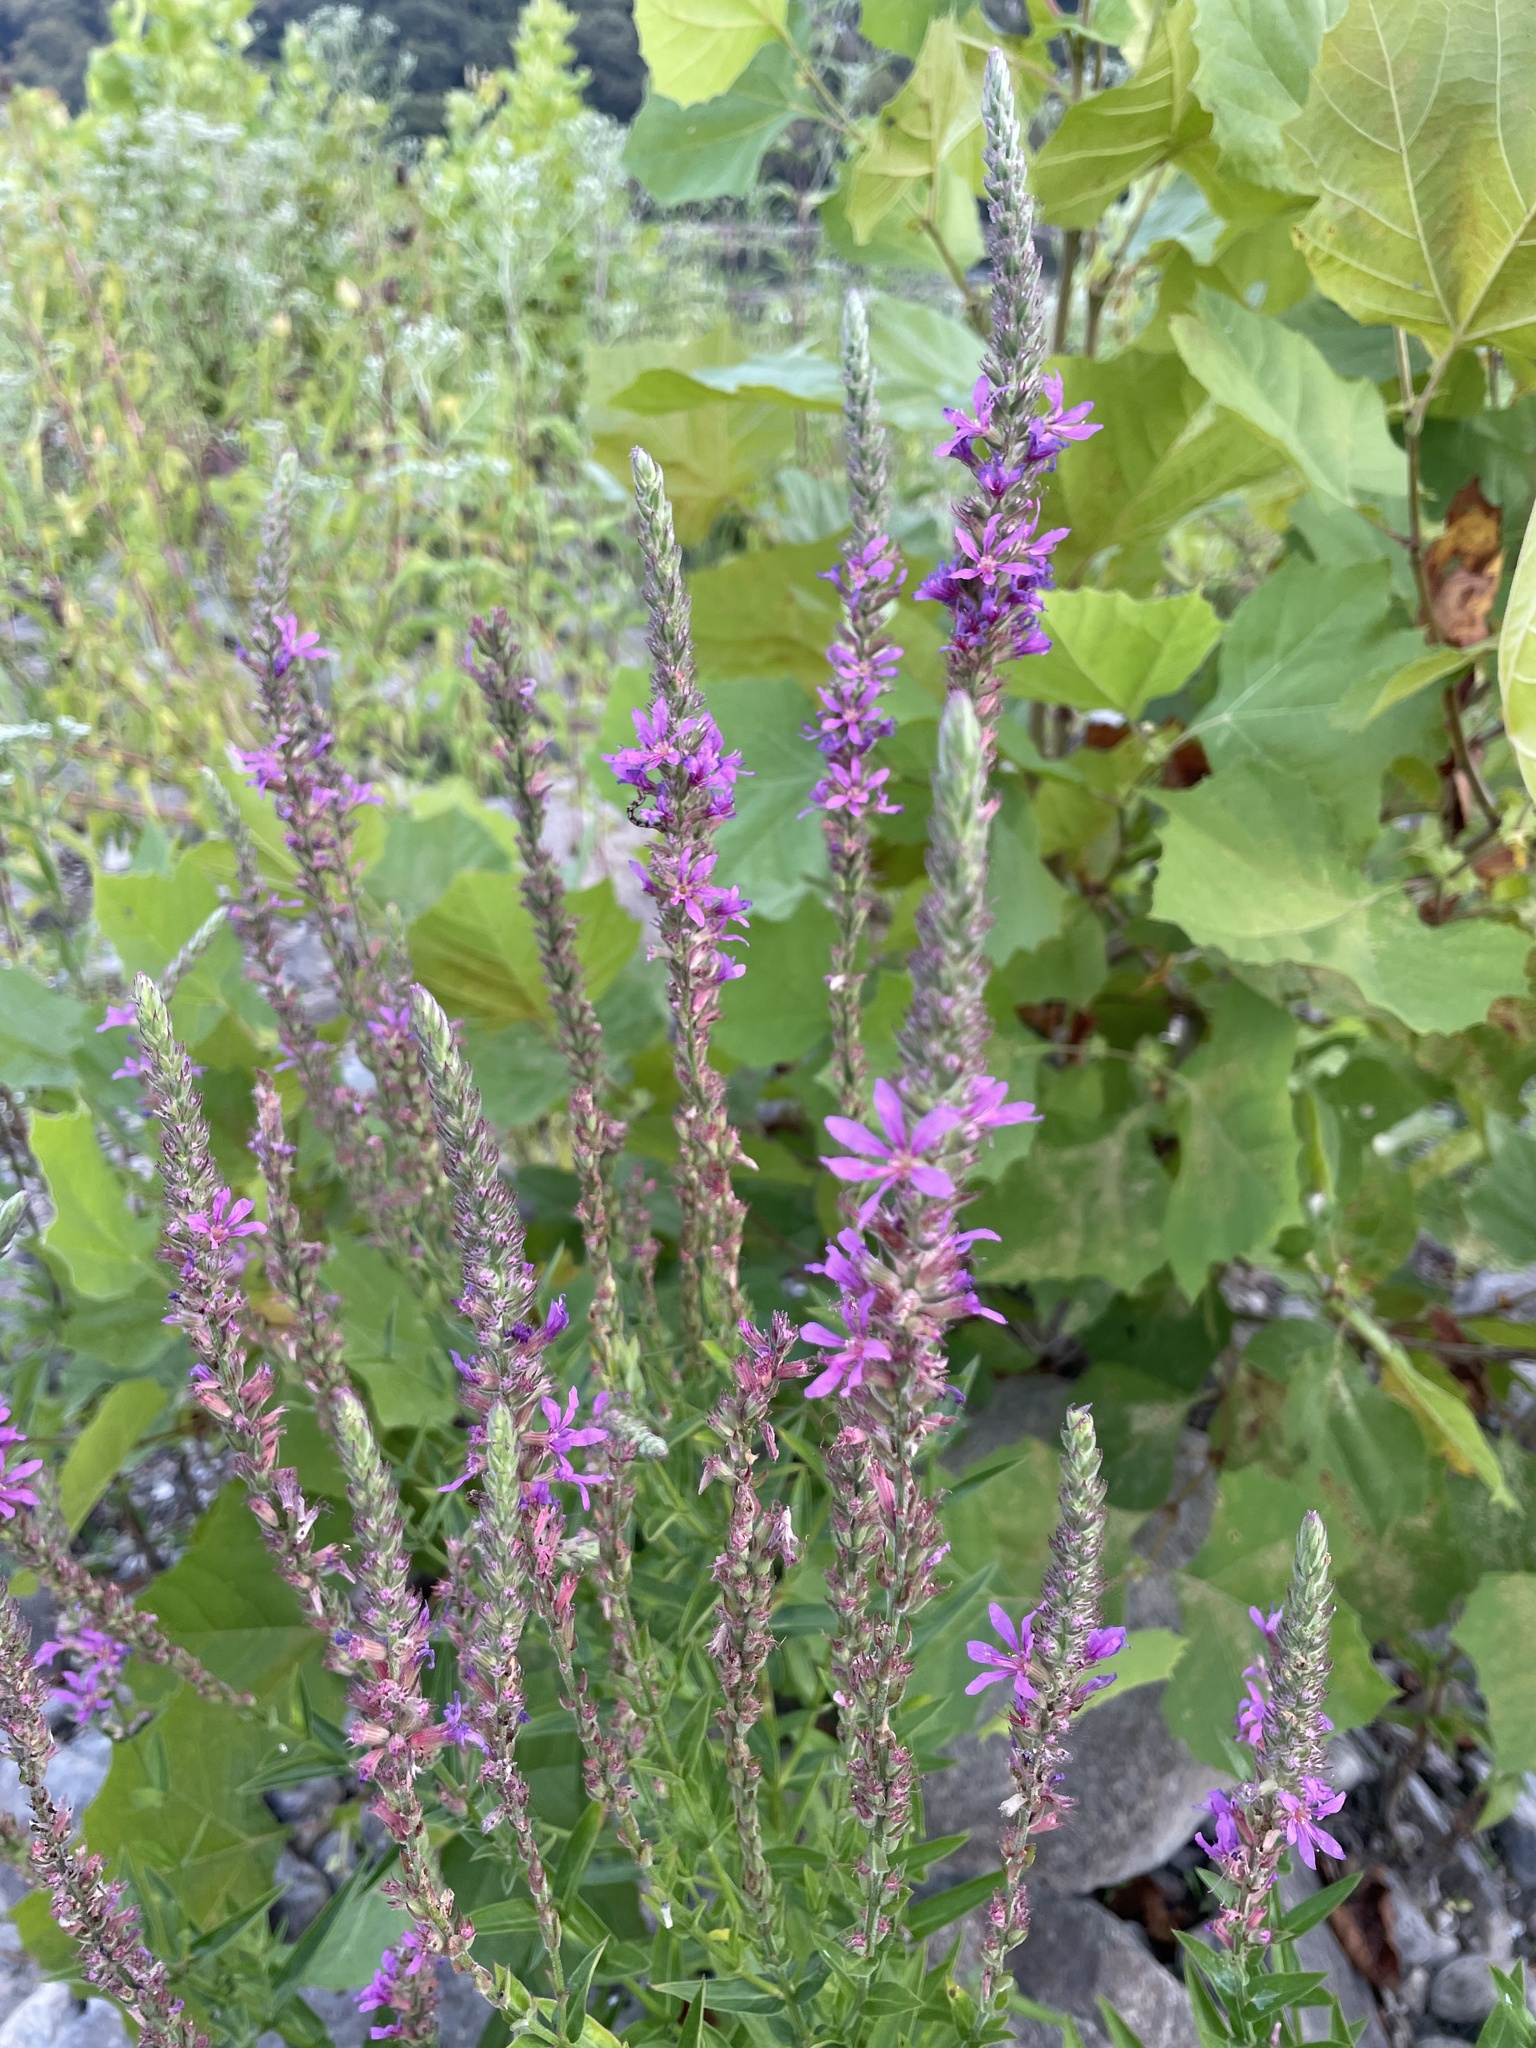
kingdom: Plantae
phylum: Tracheophyta
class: Magnoliopsida
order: Myrtales
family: Lythraceae
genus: Lythrum
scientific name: Lythrum salicaria
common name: Purple loosestrife
